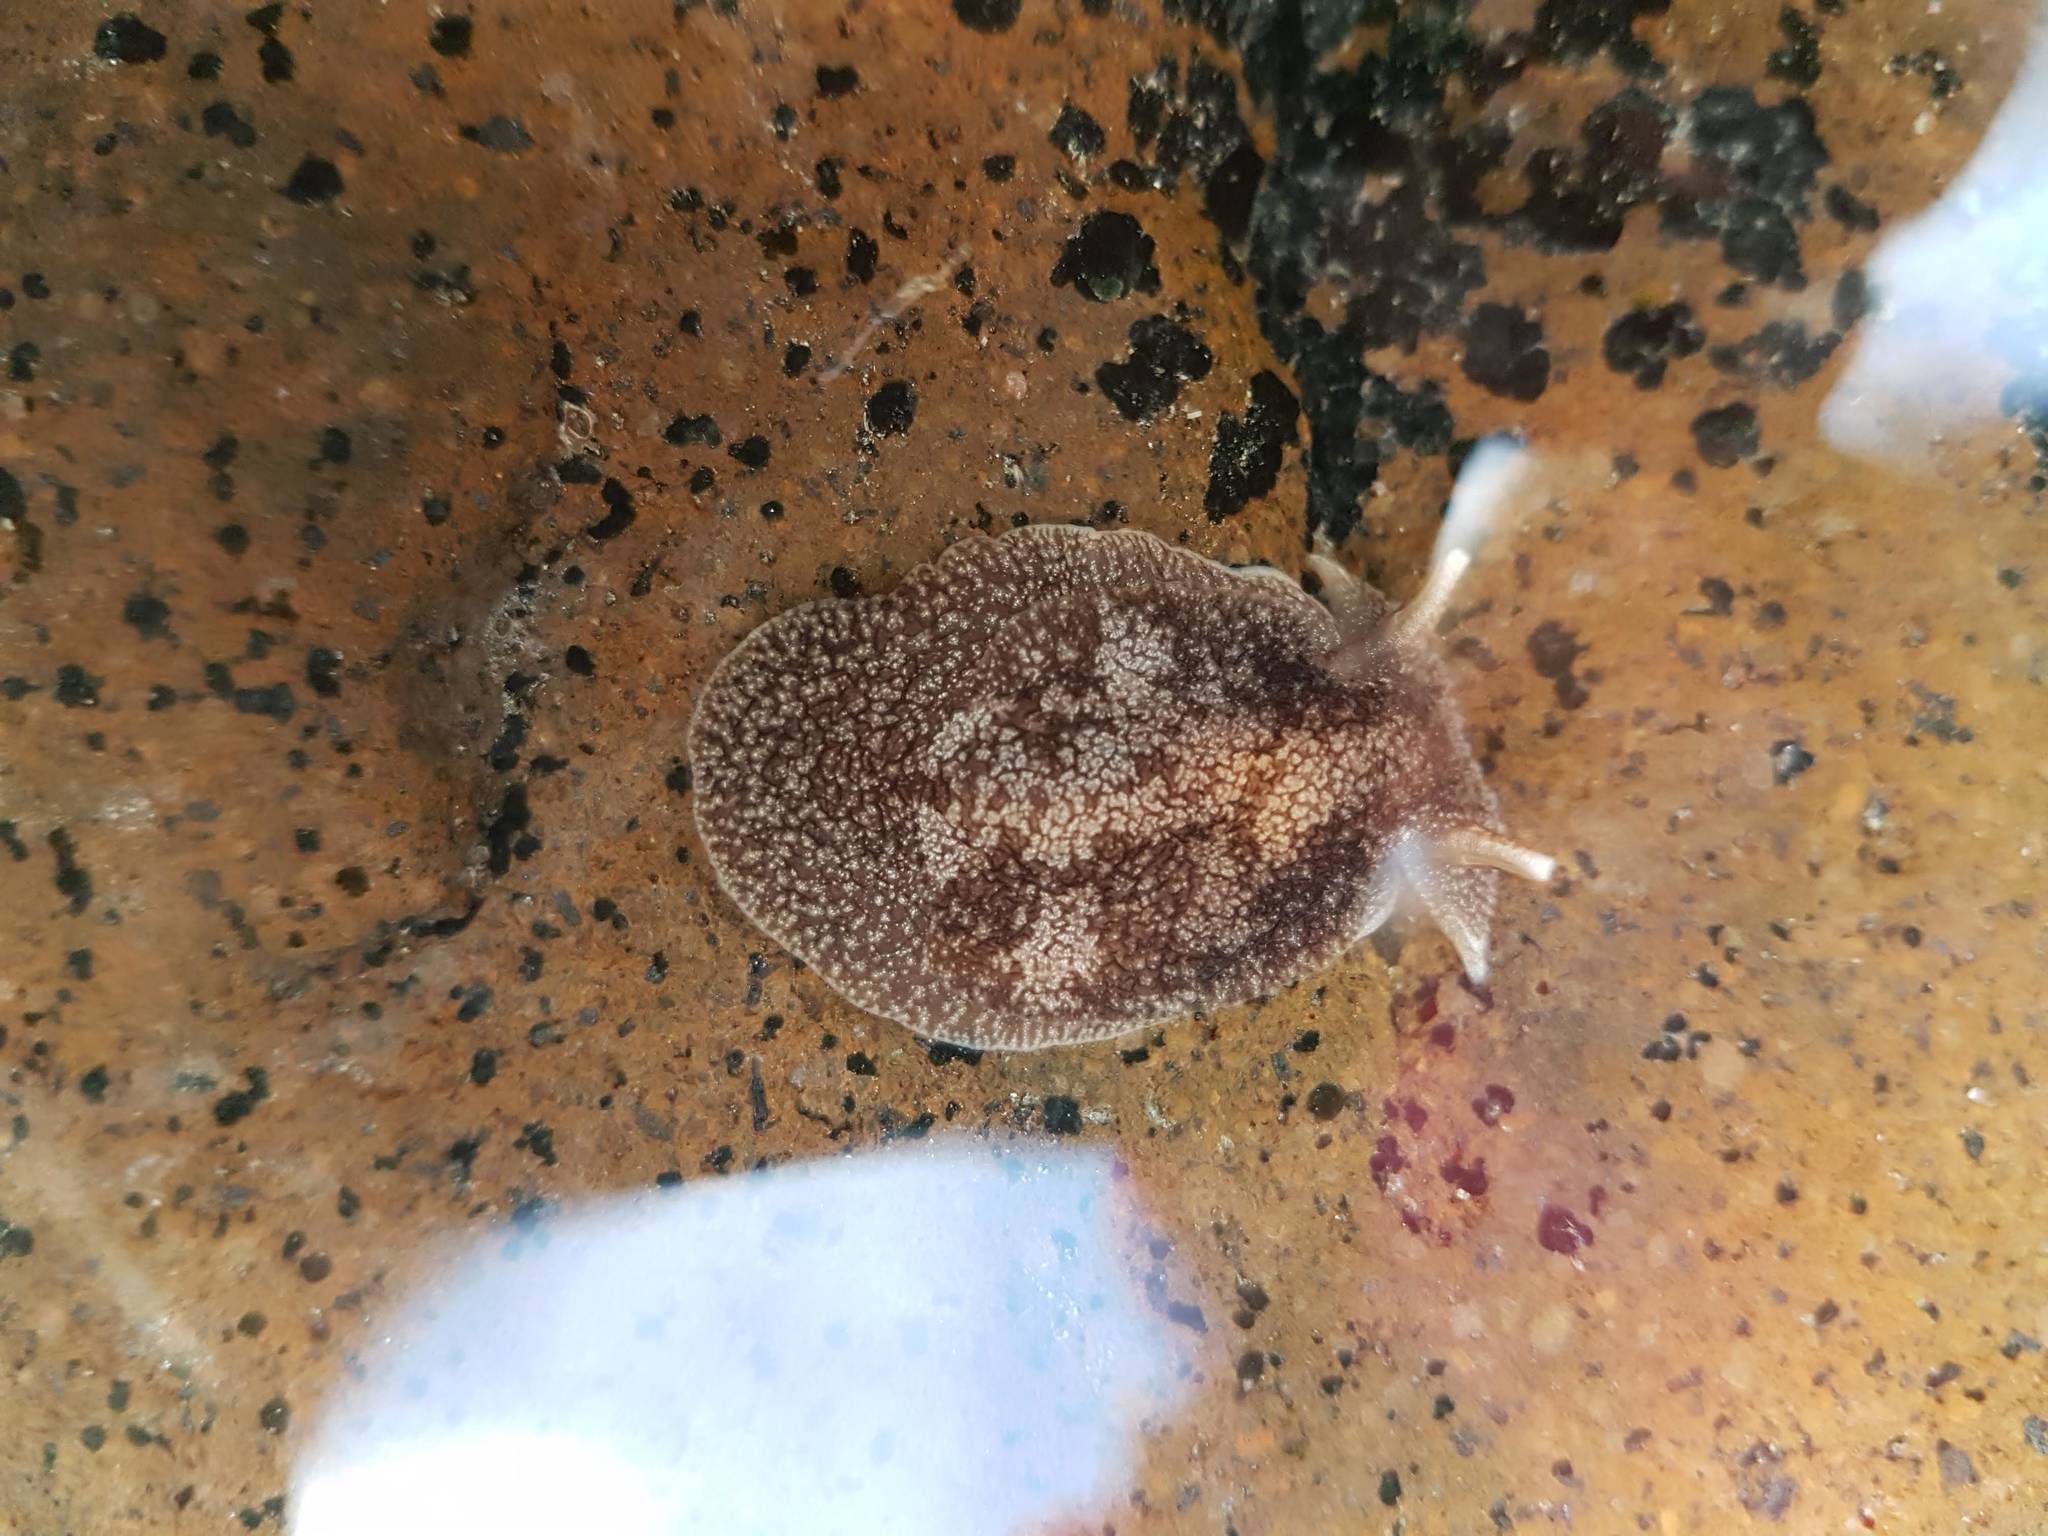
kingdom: Animalia
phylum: Mollusca
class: Gastropoda
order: Pleurobranchida
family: Pleurobranchaeidae
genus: Pleurobranchaea
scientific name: Pleurobranchaea maculata
